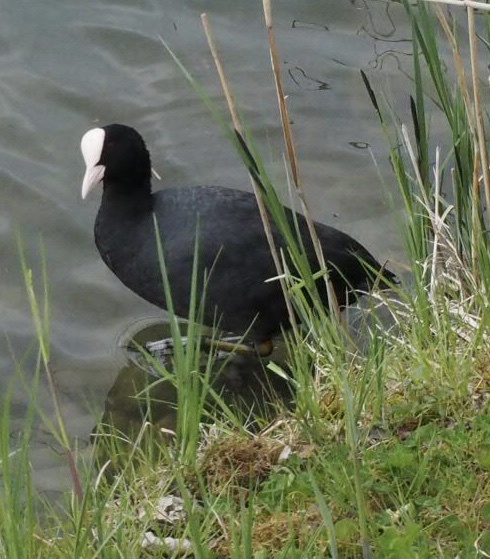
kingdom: Animalia
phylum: Chordata
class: Aves
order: Gruiformes
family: Rallidae
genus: Fulica
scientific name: Fulica atra
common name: Eurasian coot
